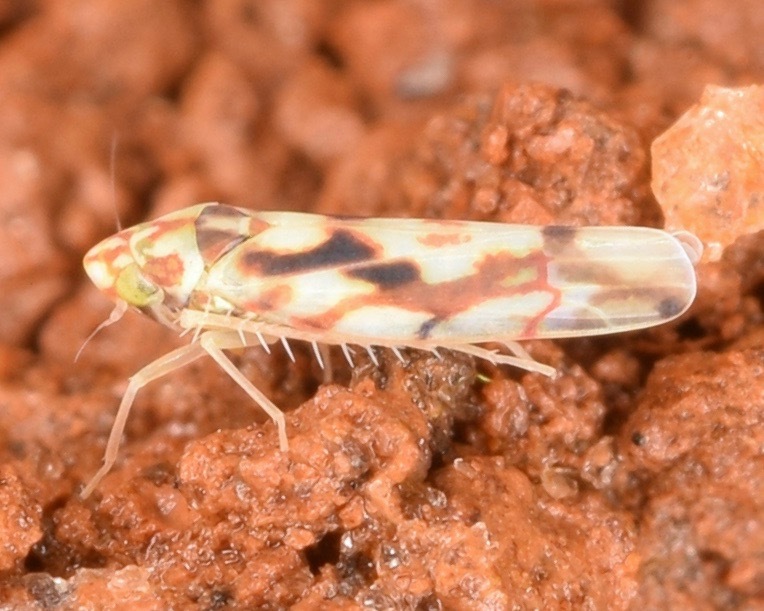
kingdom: Animalia
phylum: Arthropoda
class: Insecta
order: Hemiptera
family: Cicadellidae
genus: Erythroneura
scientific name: Erythroneura palimpsesta
